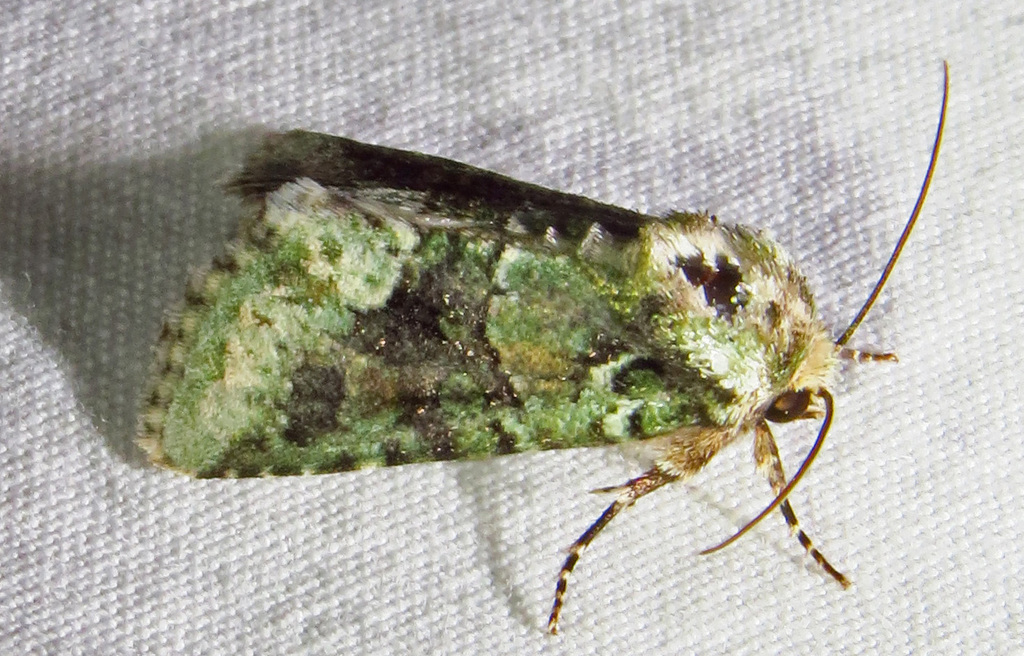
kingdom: Animalia
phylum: Arthropoda
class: Insecta
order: Lepidoptera
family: Noctuidae
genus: Lacinipolia
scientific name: Lacinipolia explicata
